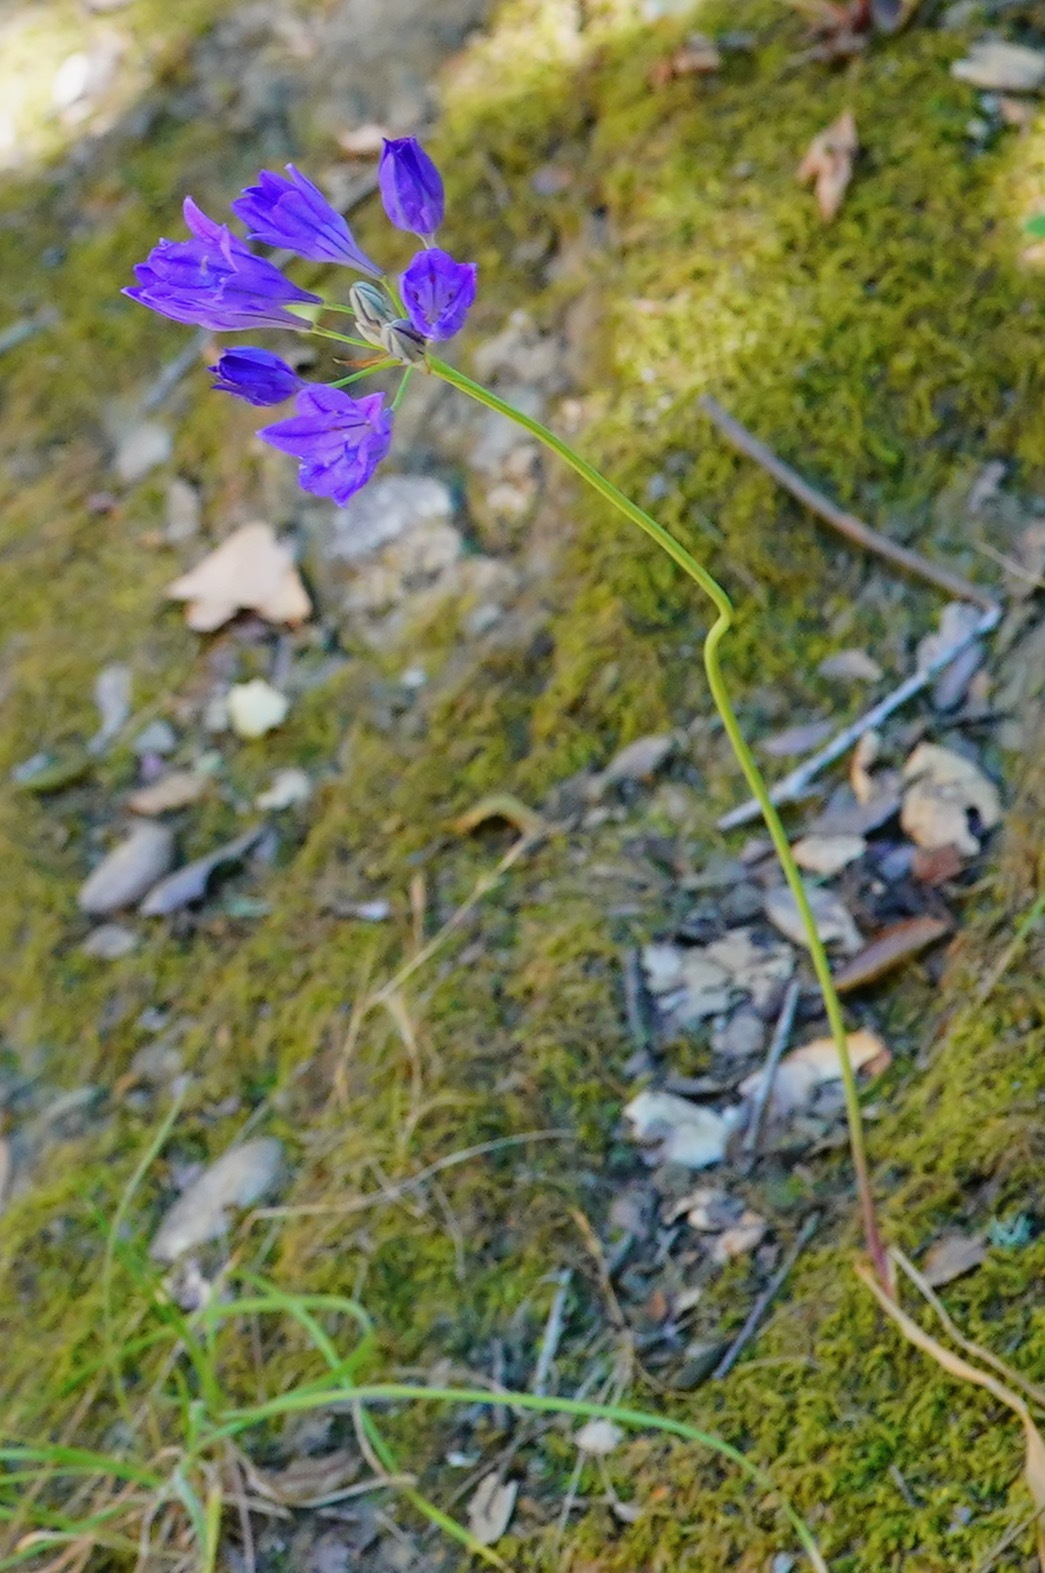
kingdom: Plantae
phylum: Tracheophyta
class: Liliopsida
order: Asparagales
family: Asparagaceae
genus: Triteleia
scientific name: Triteleia laxa
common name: Triplet-lily
